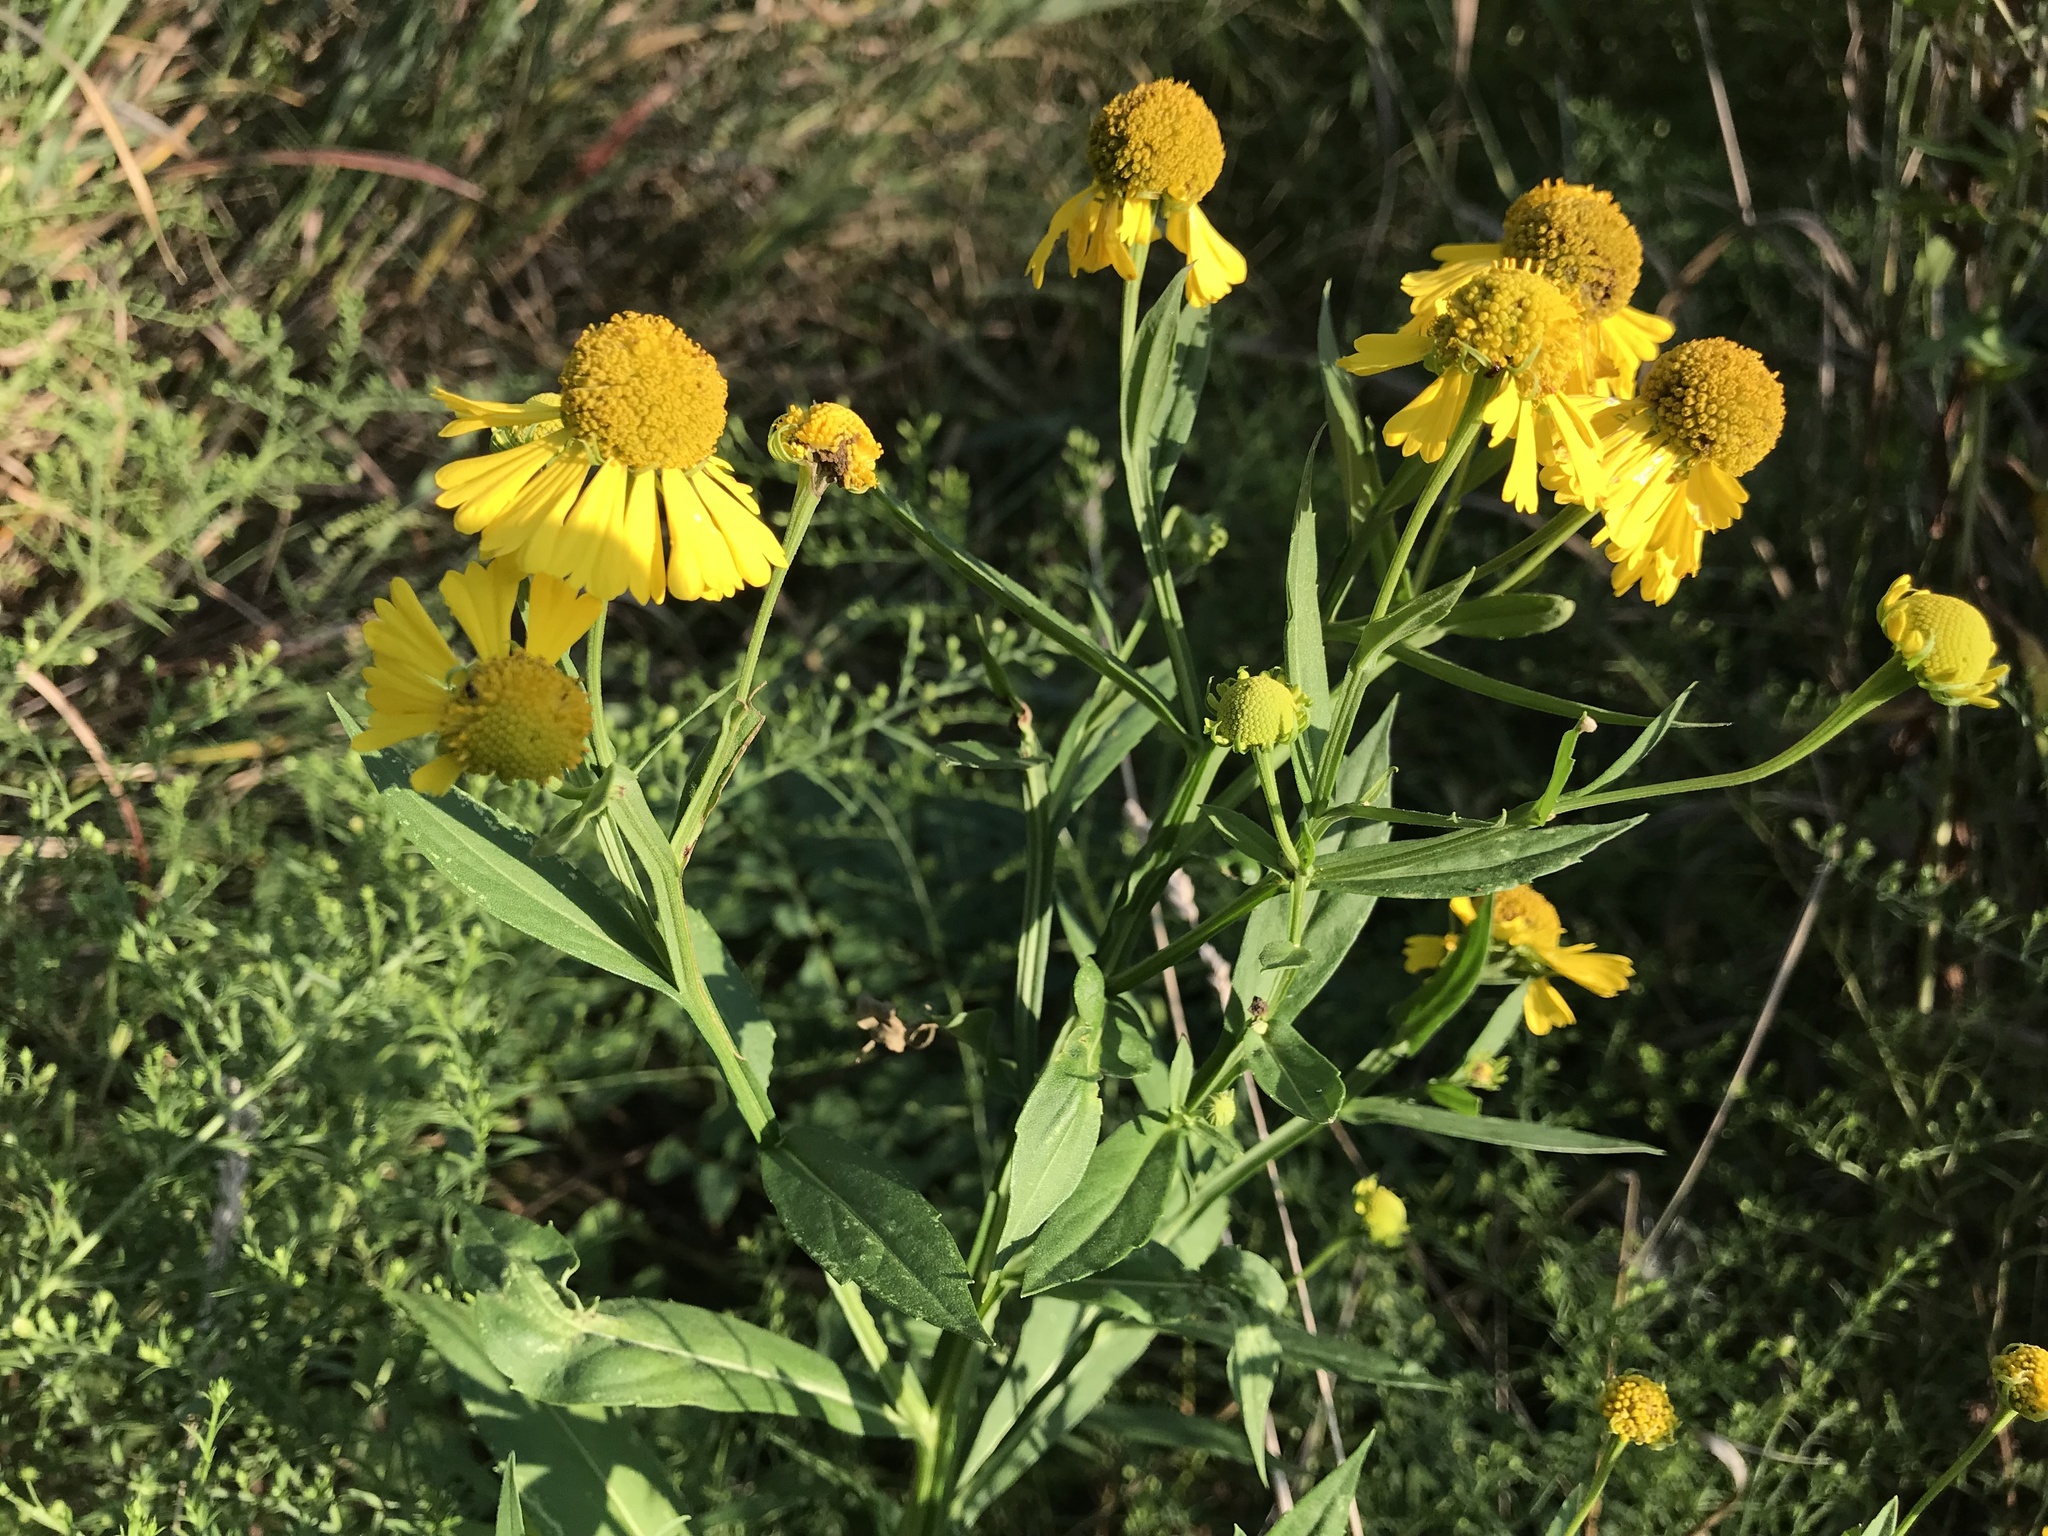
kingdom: Plantae
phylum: Tracheophyta
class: Magnoliopsida
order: Asterales
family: Asteraceae
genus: Helenium
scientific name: Helenium autumnale
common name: Sneezeweed
